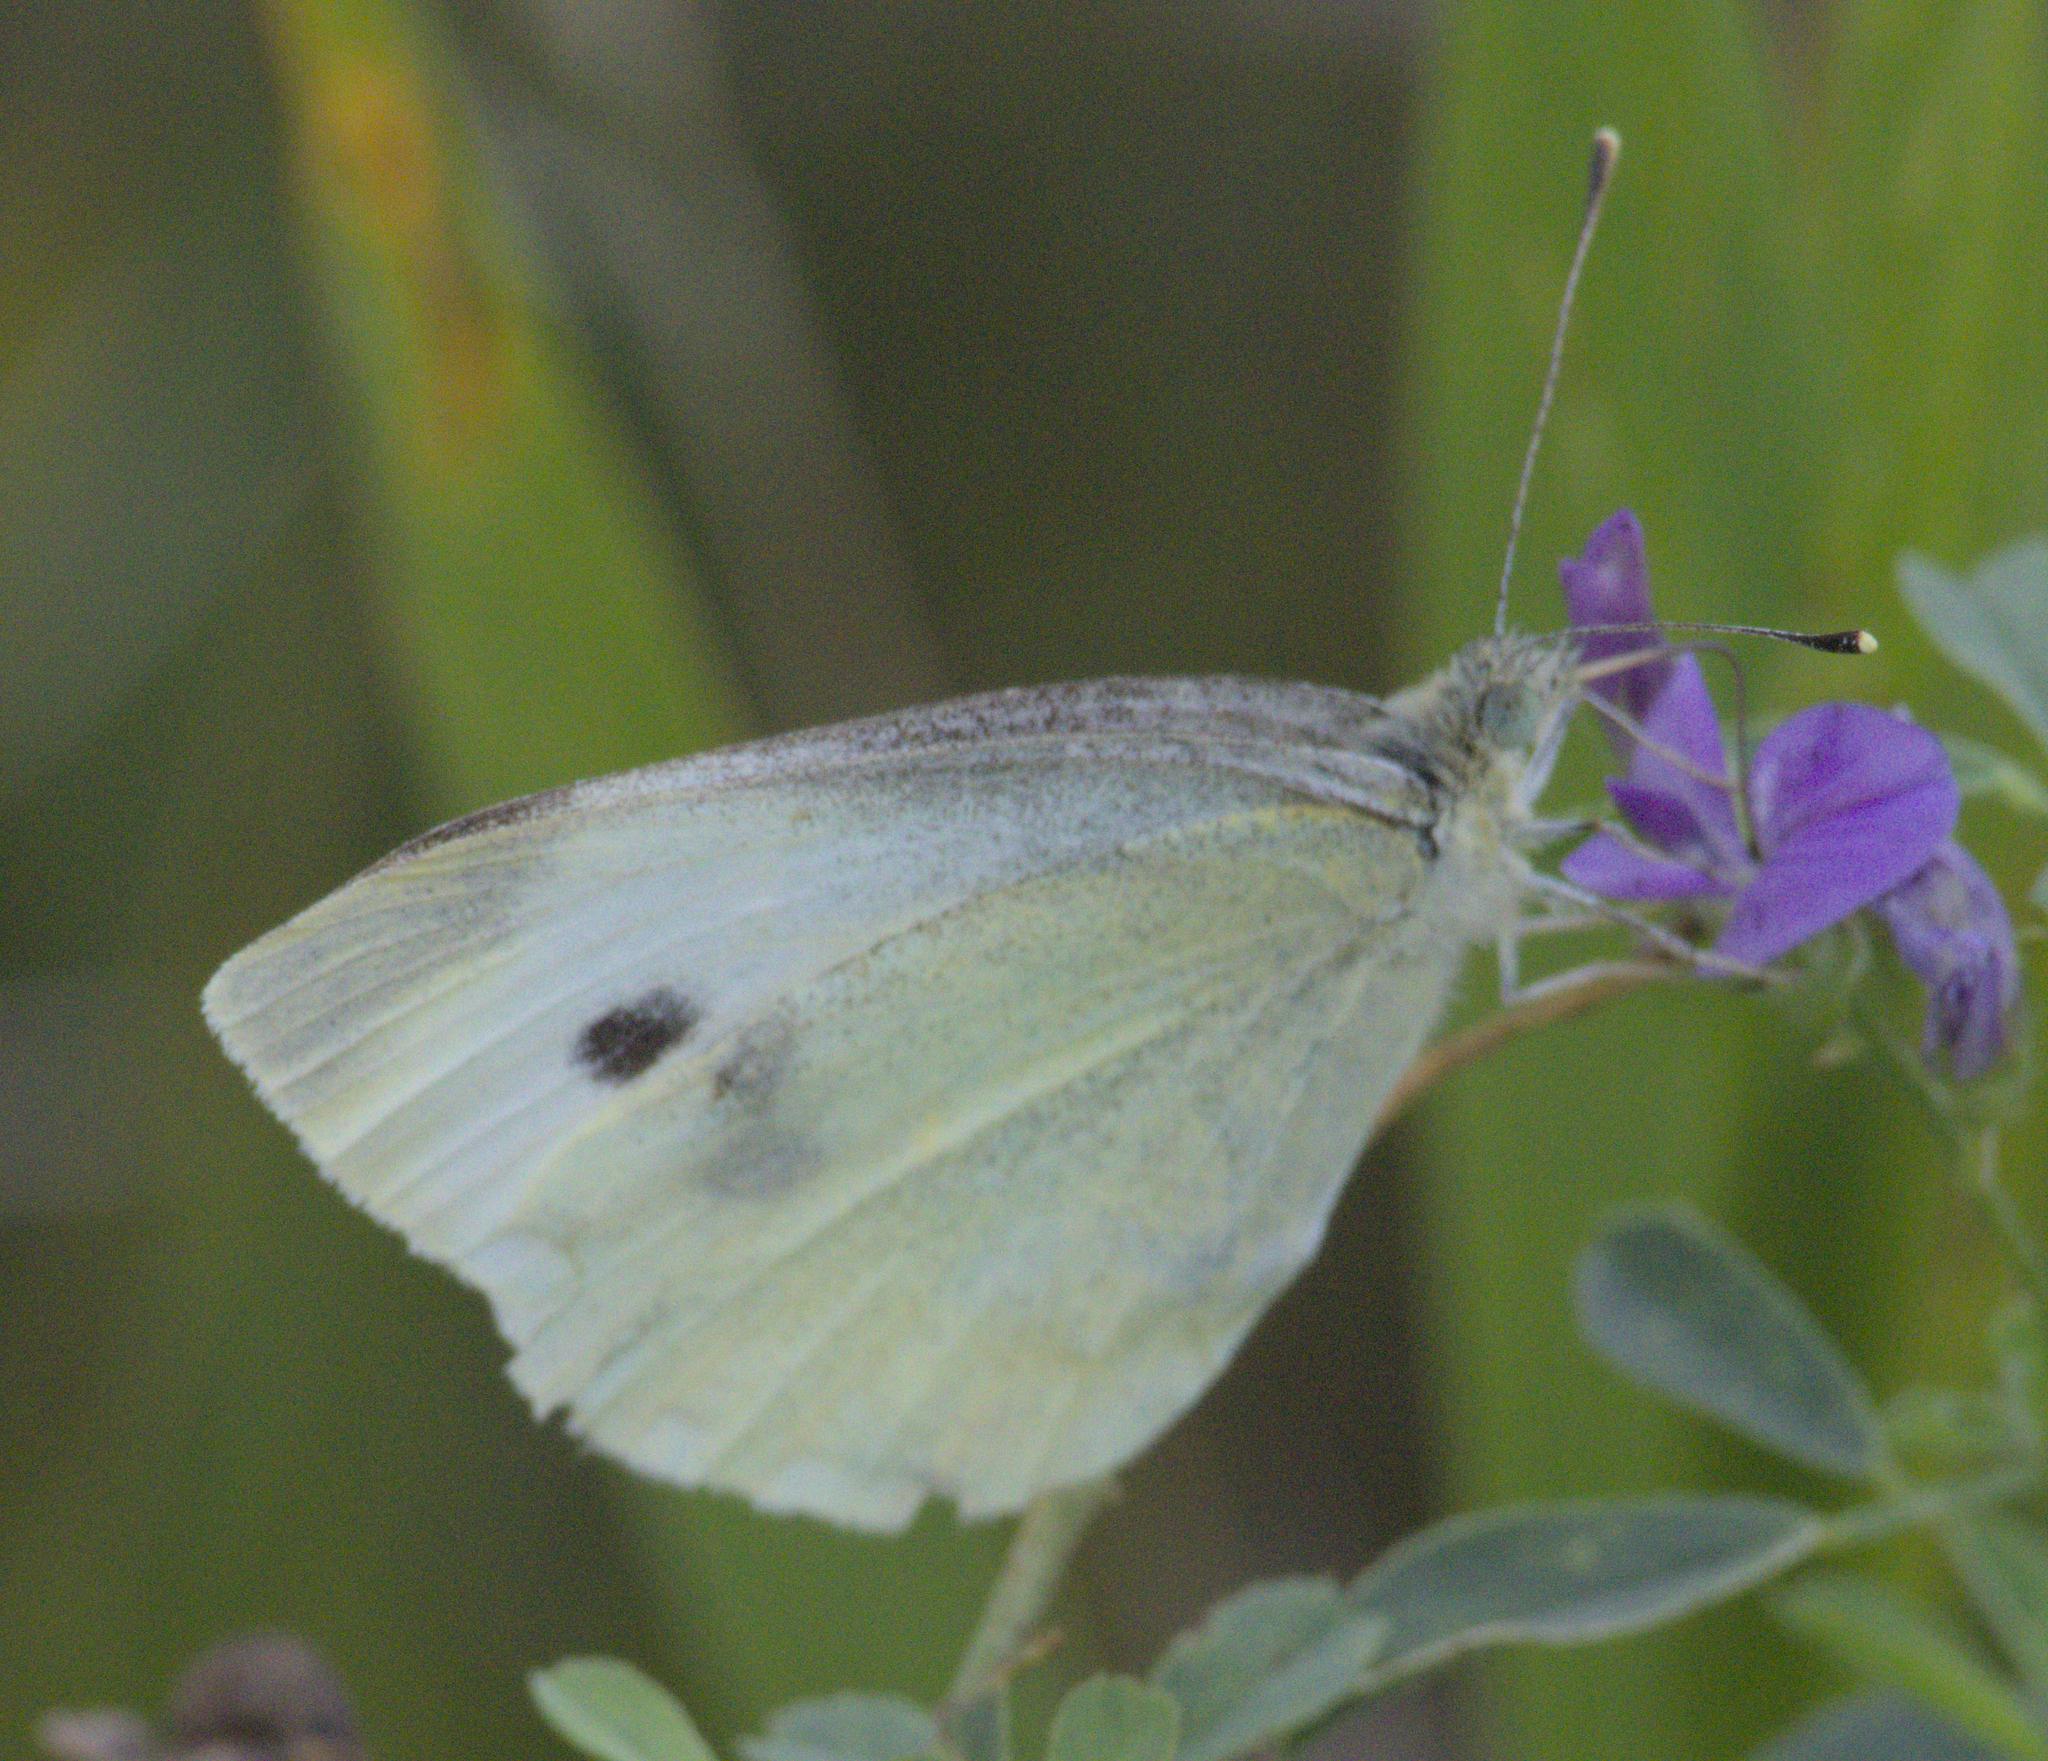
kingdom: Animalia
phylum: Arthropoda
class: Insecta
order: Lepidoptera
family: Pieridae
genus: Pieris
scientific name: Pieris rapae
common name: Small white
